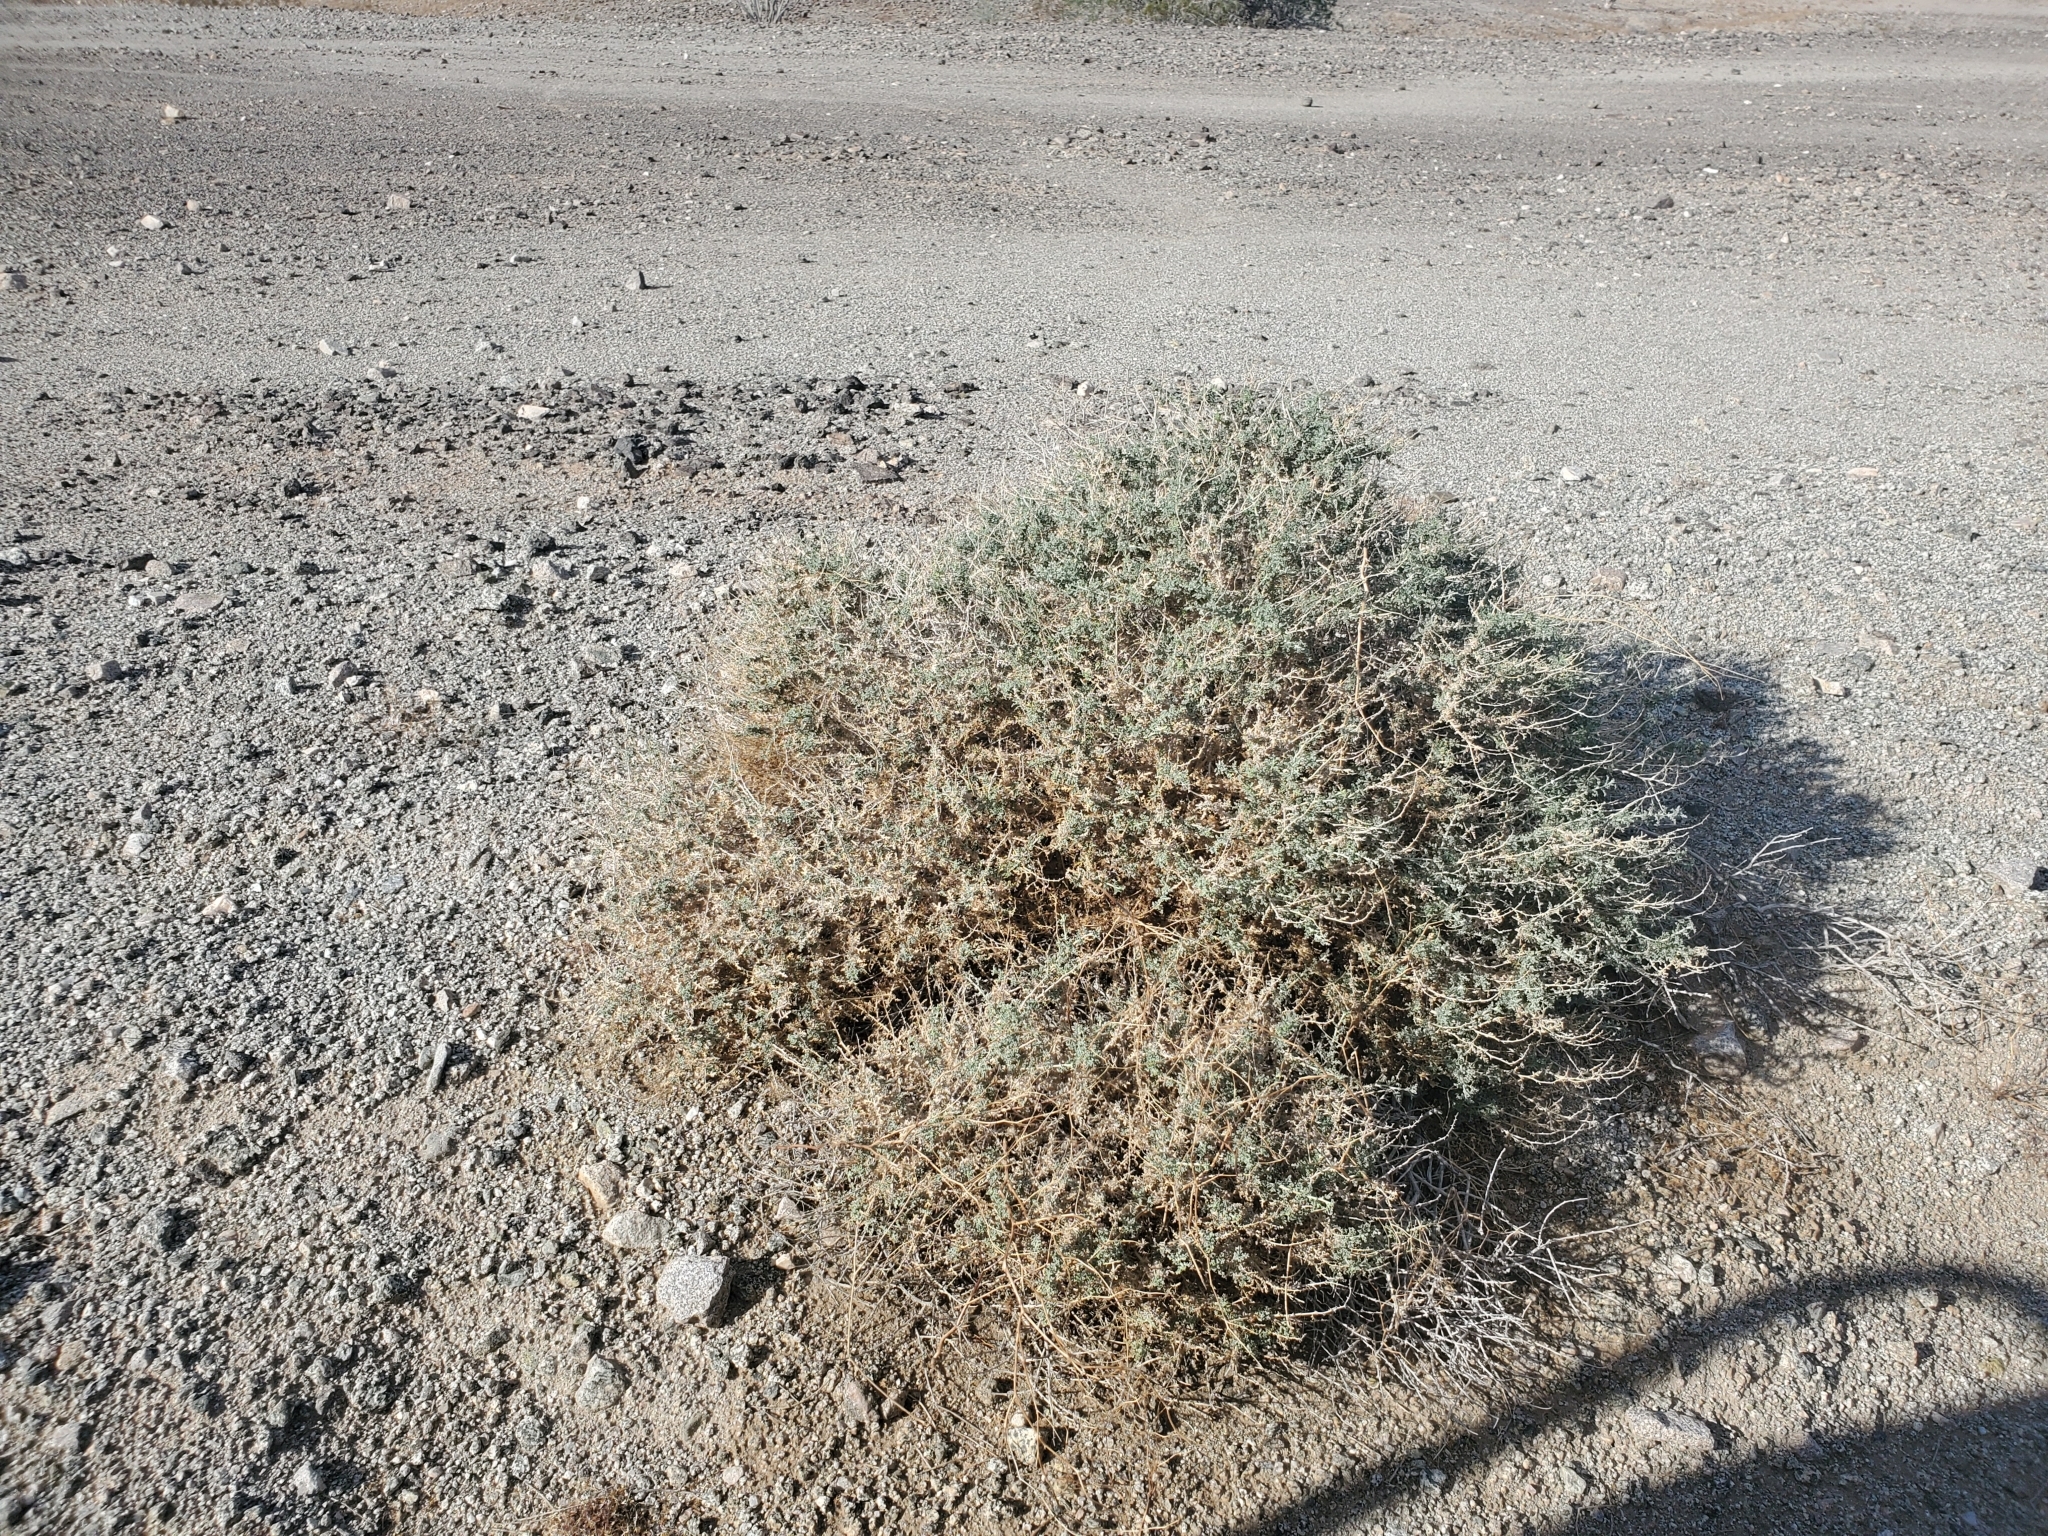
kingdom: Plantae
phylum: Tracheophyta
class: Magnoliopsida
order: Asterales
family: Asteraceae
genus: Ambrosia
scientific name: Ambrosia dumosa
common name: Bur-sage
